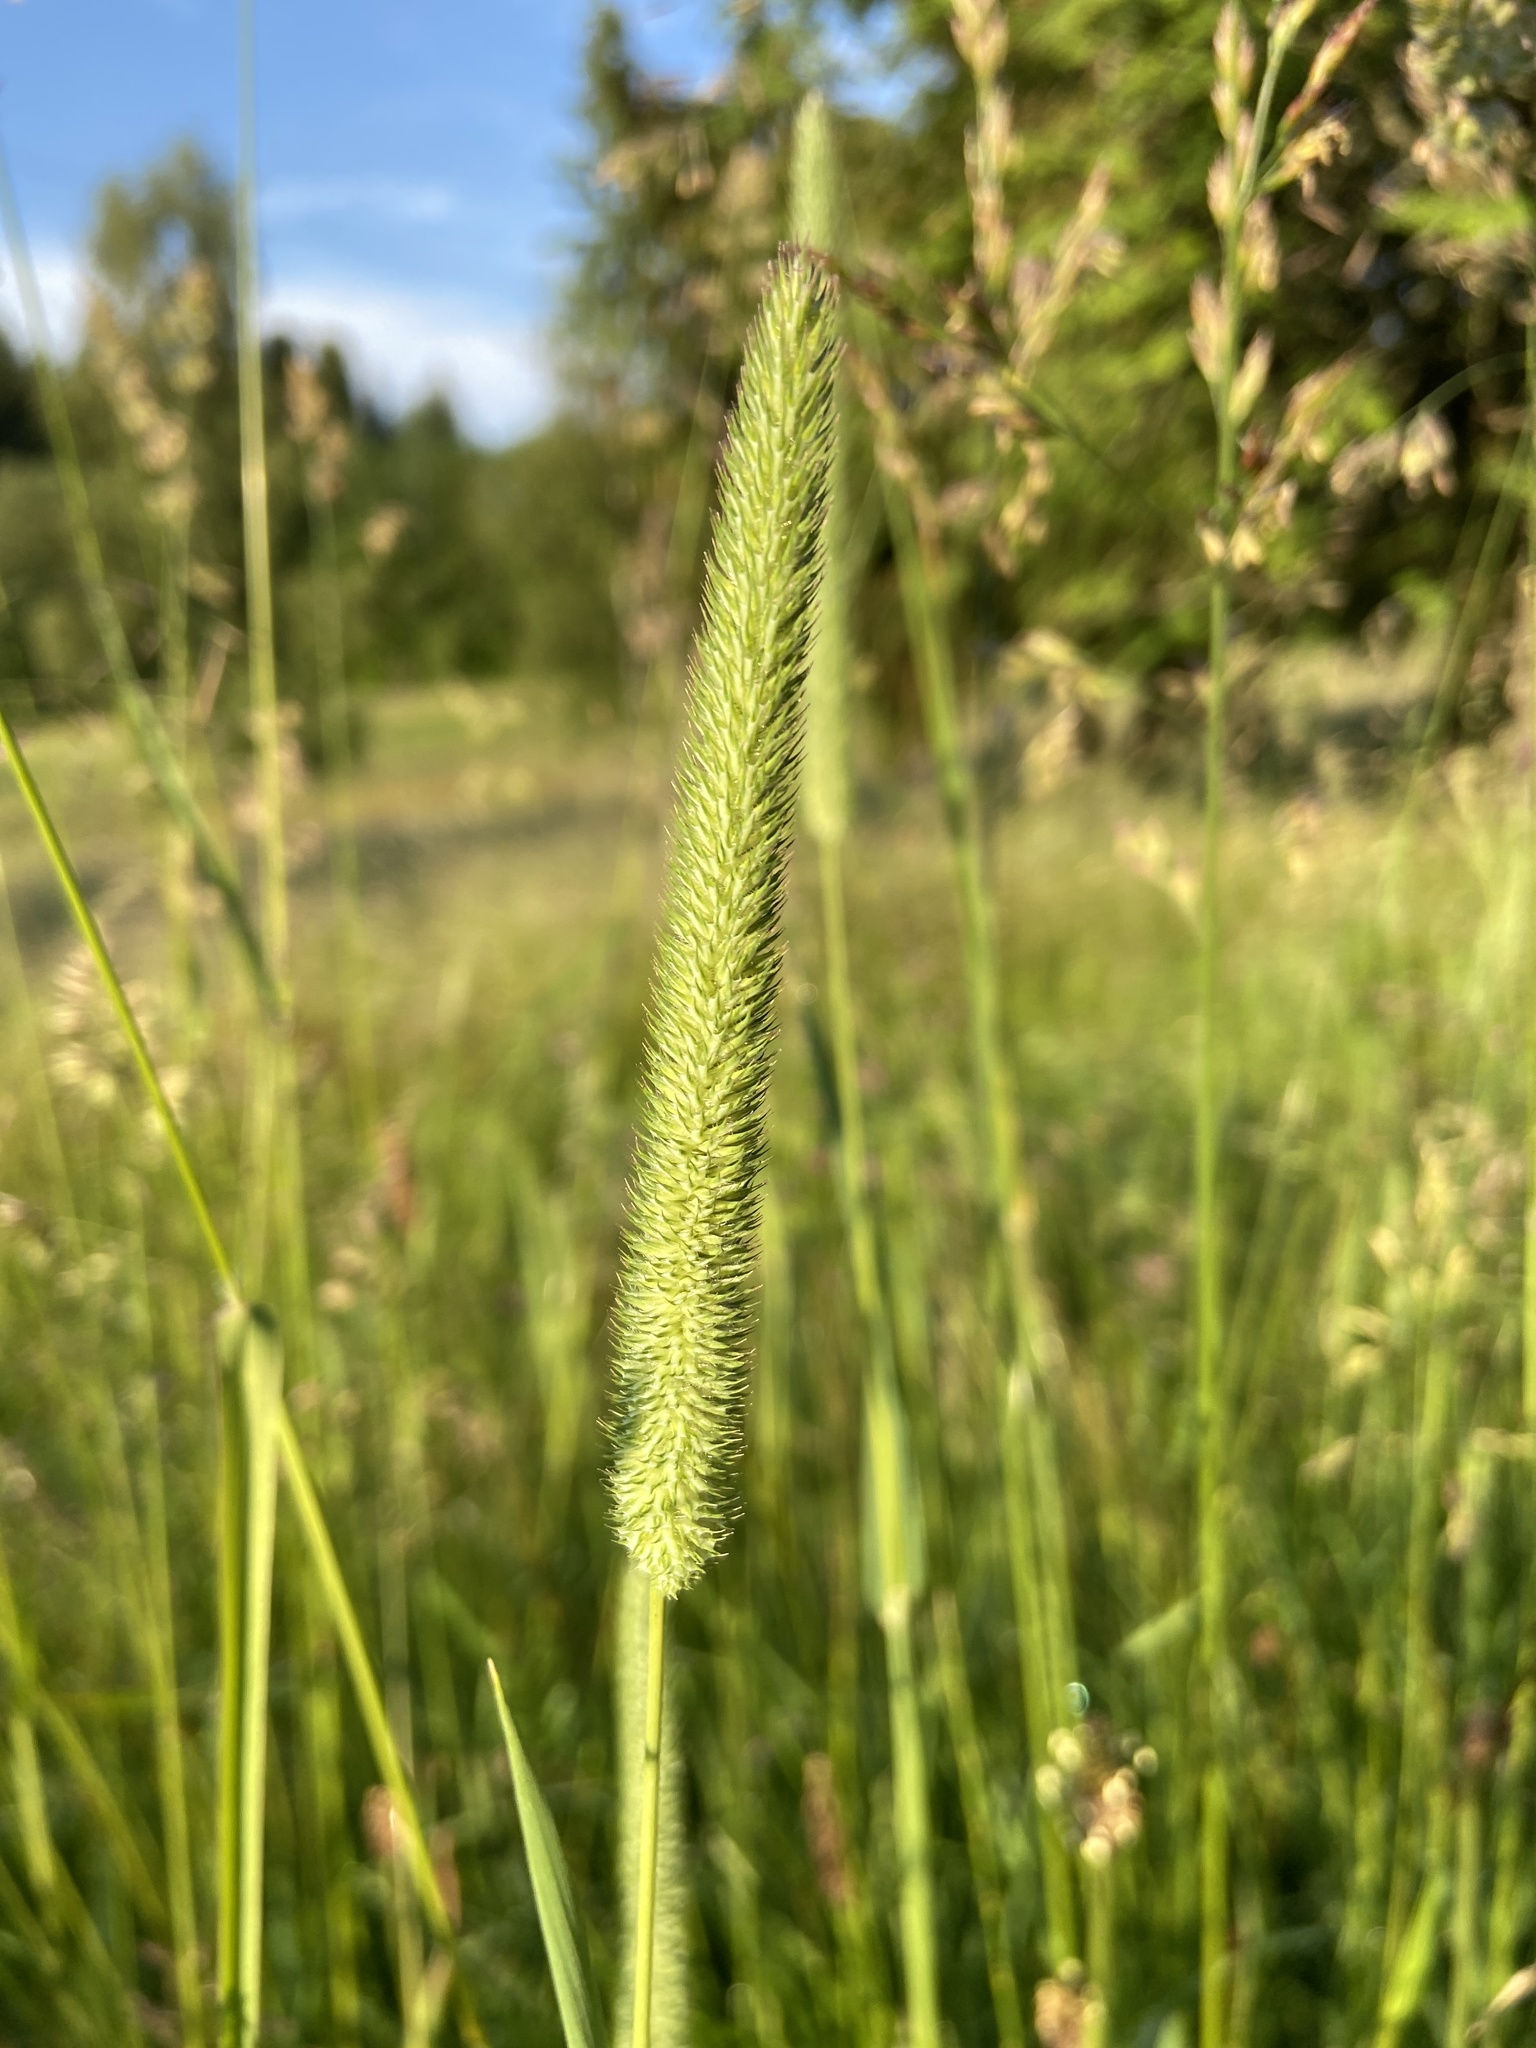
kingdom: Plantae
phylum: Tracheophyta
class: Liliopsida
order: Poales
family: Poaceae
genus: Phleum
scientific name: Phleum pratense
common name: Timothy grass
